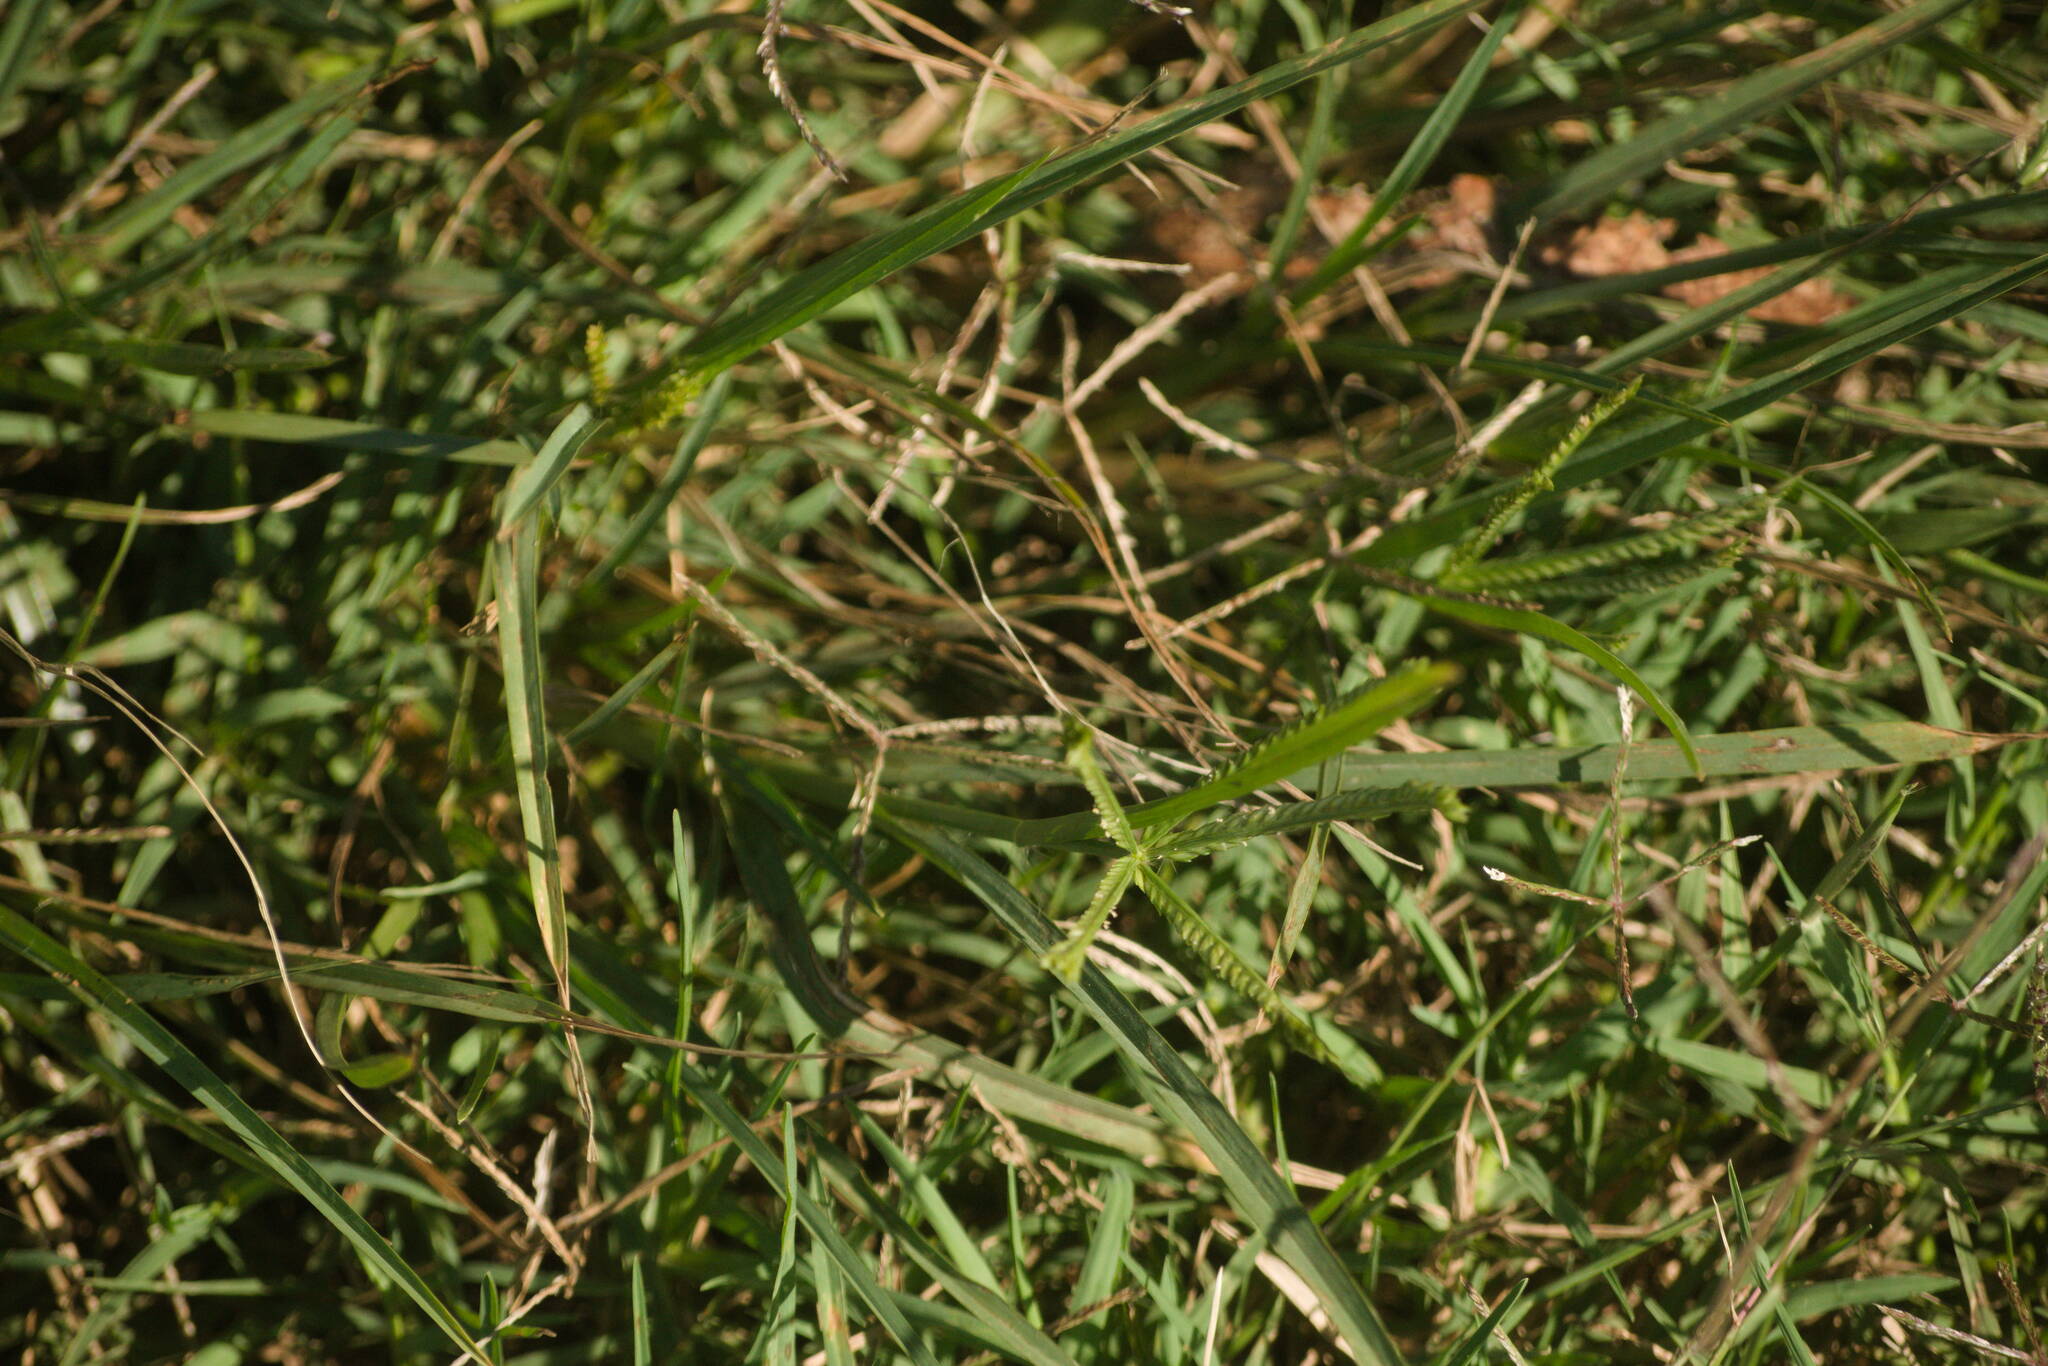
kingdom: Plantae
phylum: Tracheophyta
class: Liliopsida
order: Poales
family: Poaceae
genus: Eleusine
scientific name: Eleusine indica
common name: Yard-grass
